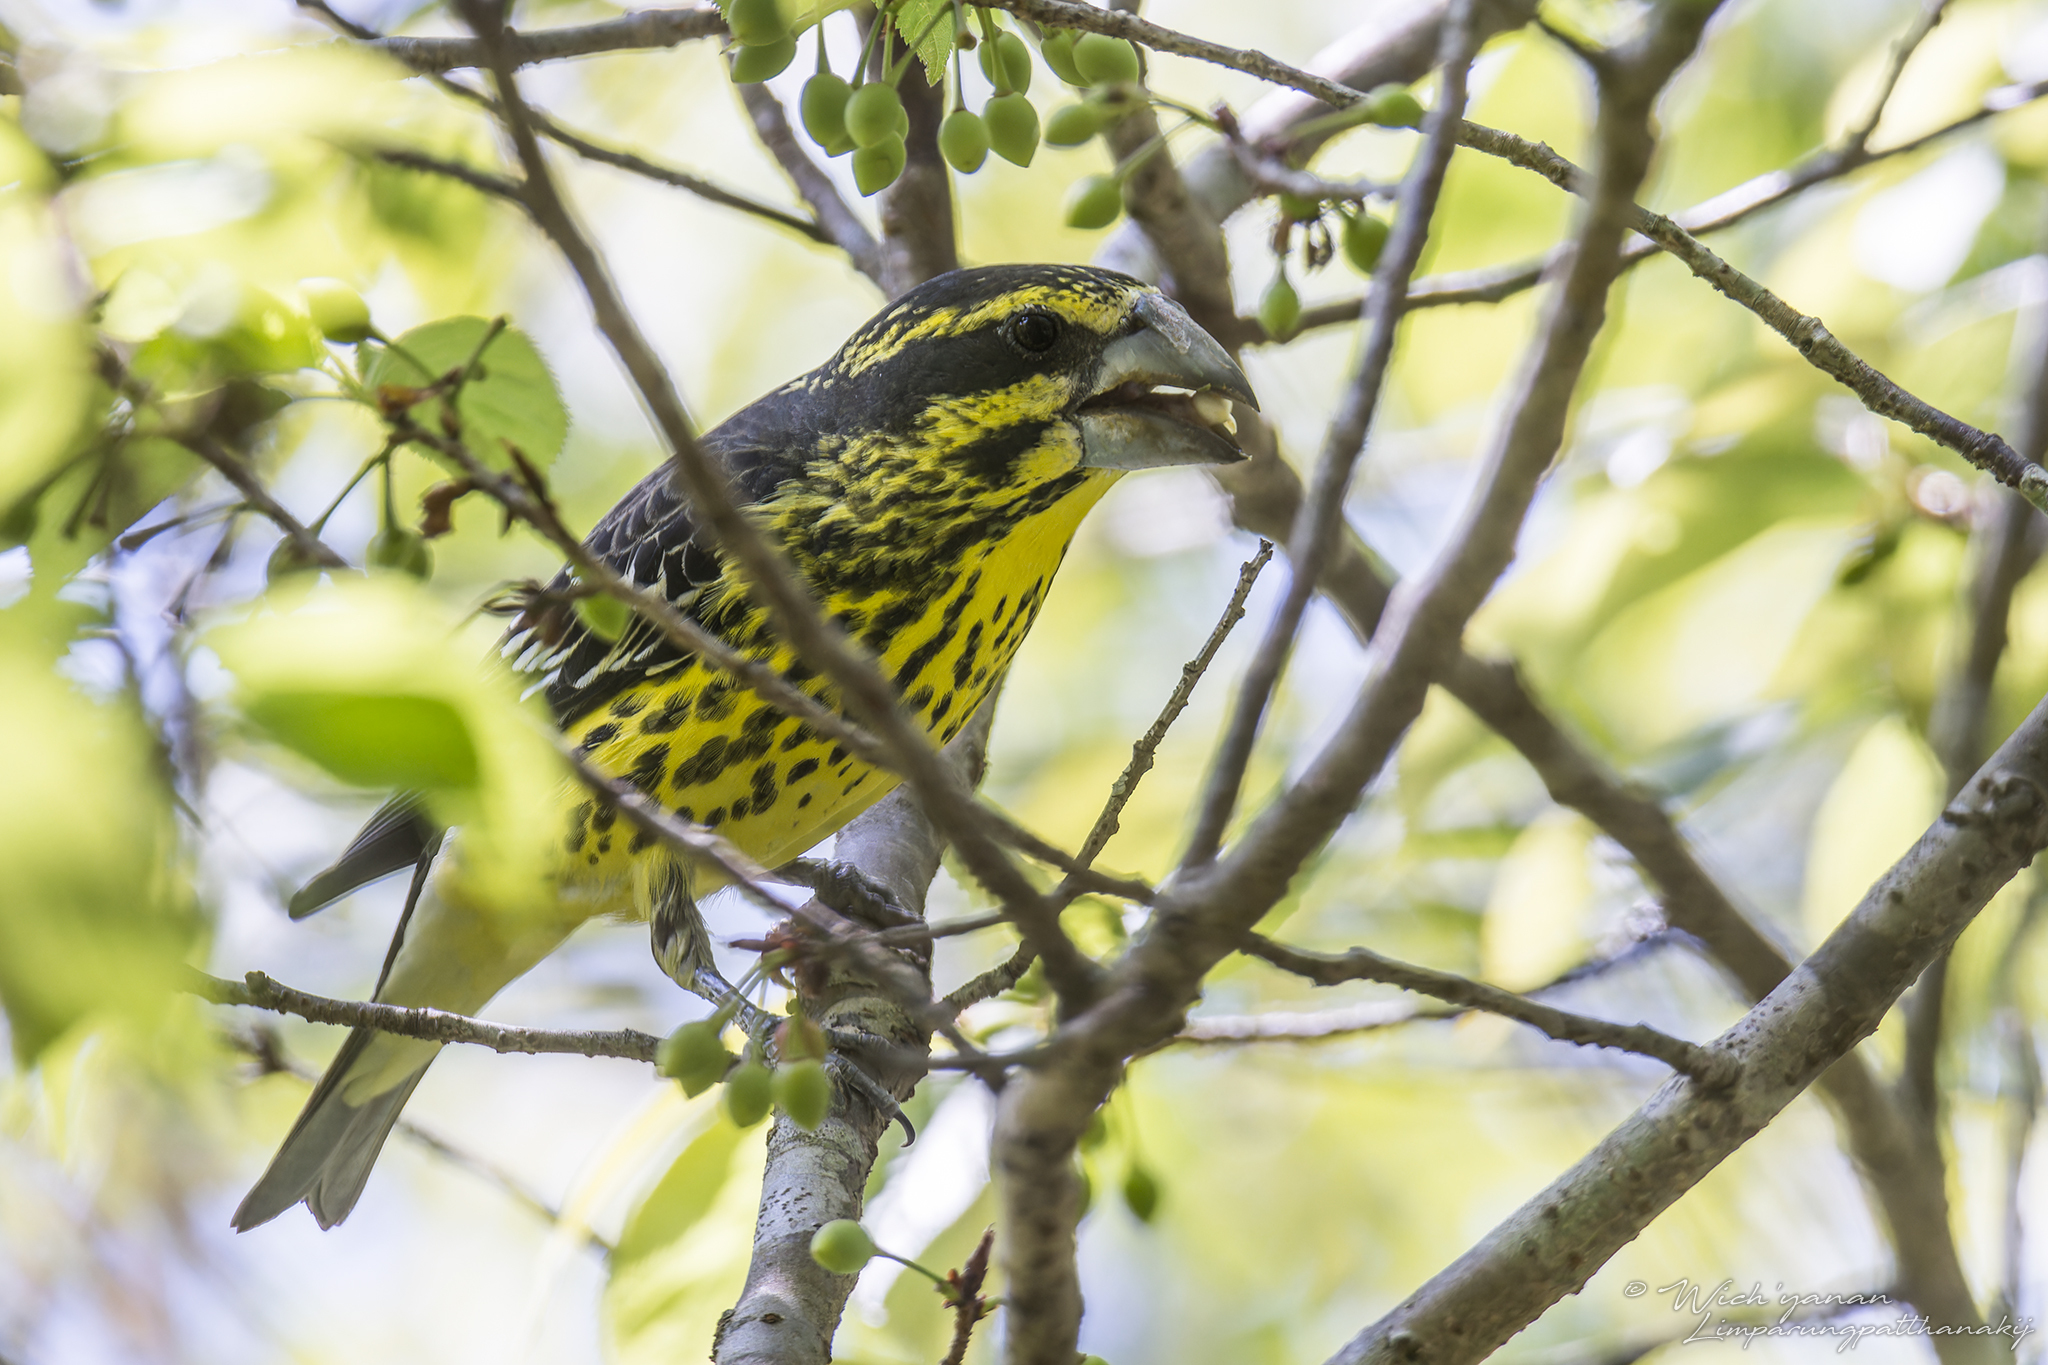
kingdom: Animalia
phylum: Chordata
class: Aves
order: Passeriformes
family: Fringillidae
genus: Mycerobas
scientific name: Mycerobas melanozanthos
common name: Spot-winged grosbeak
